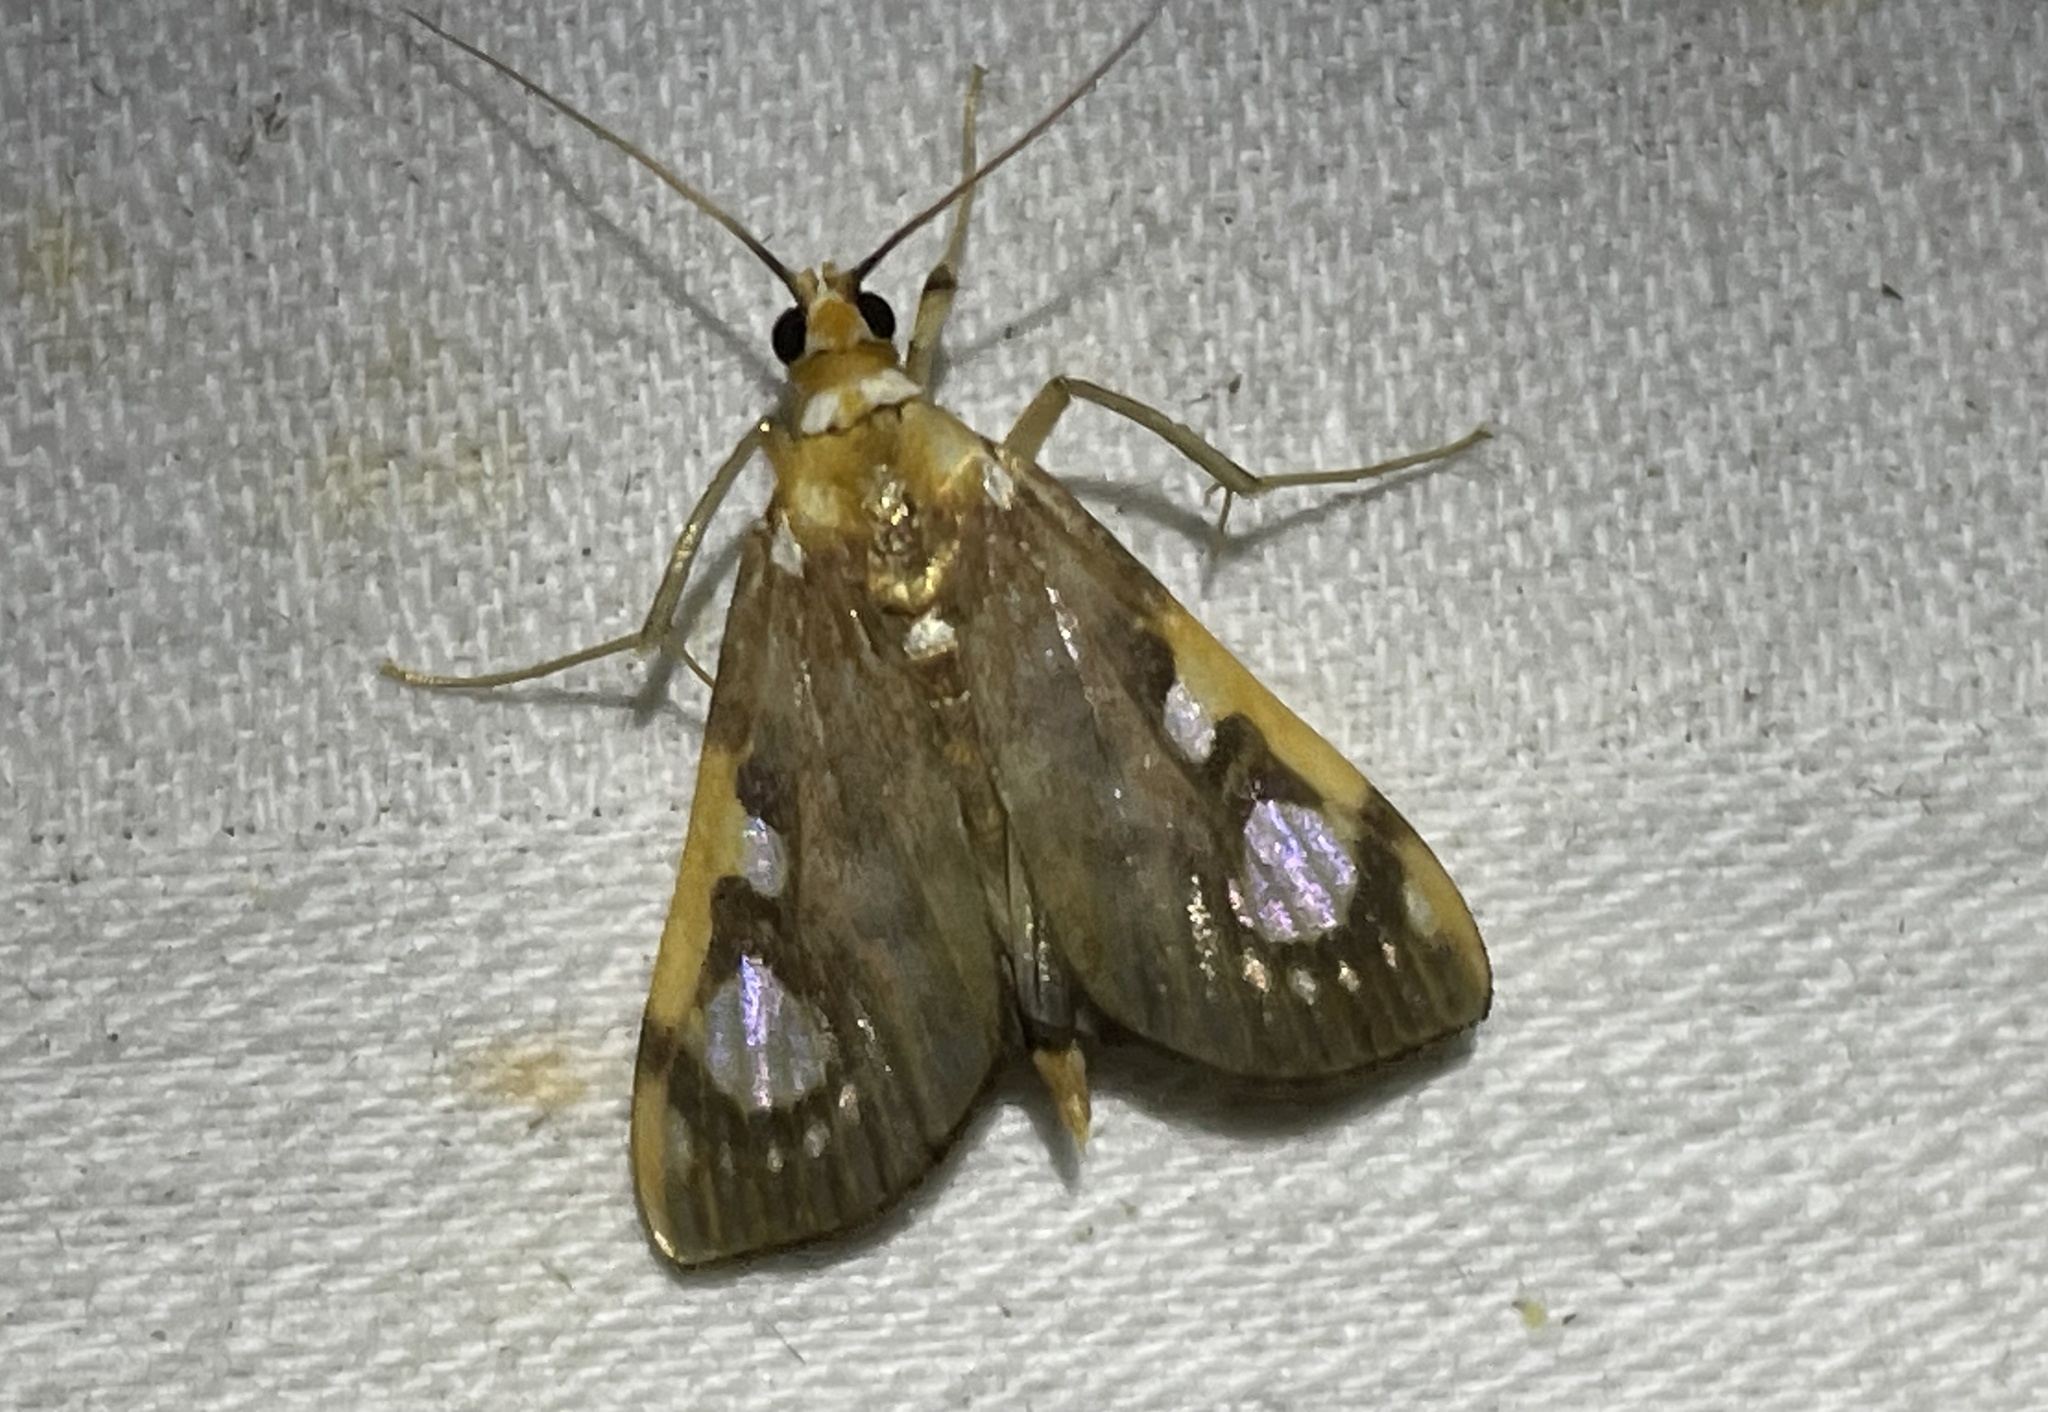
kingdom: Animalia
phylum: Arthropoda
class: Insecta
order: Lepidoptera
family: Crambidae
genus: Chalcidoptera
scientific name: Chalcidoptera contraria
